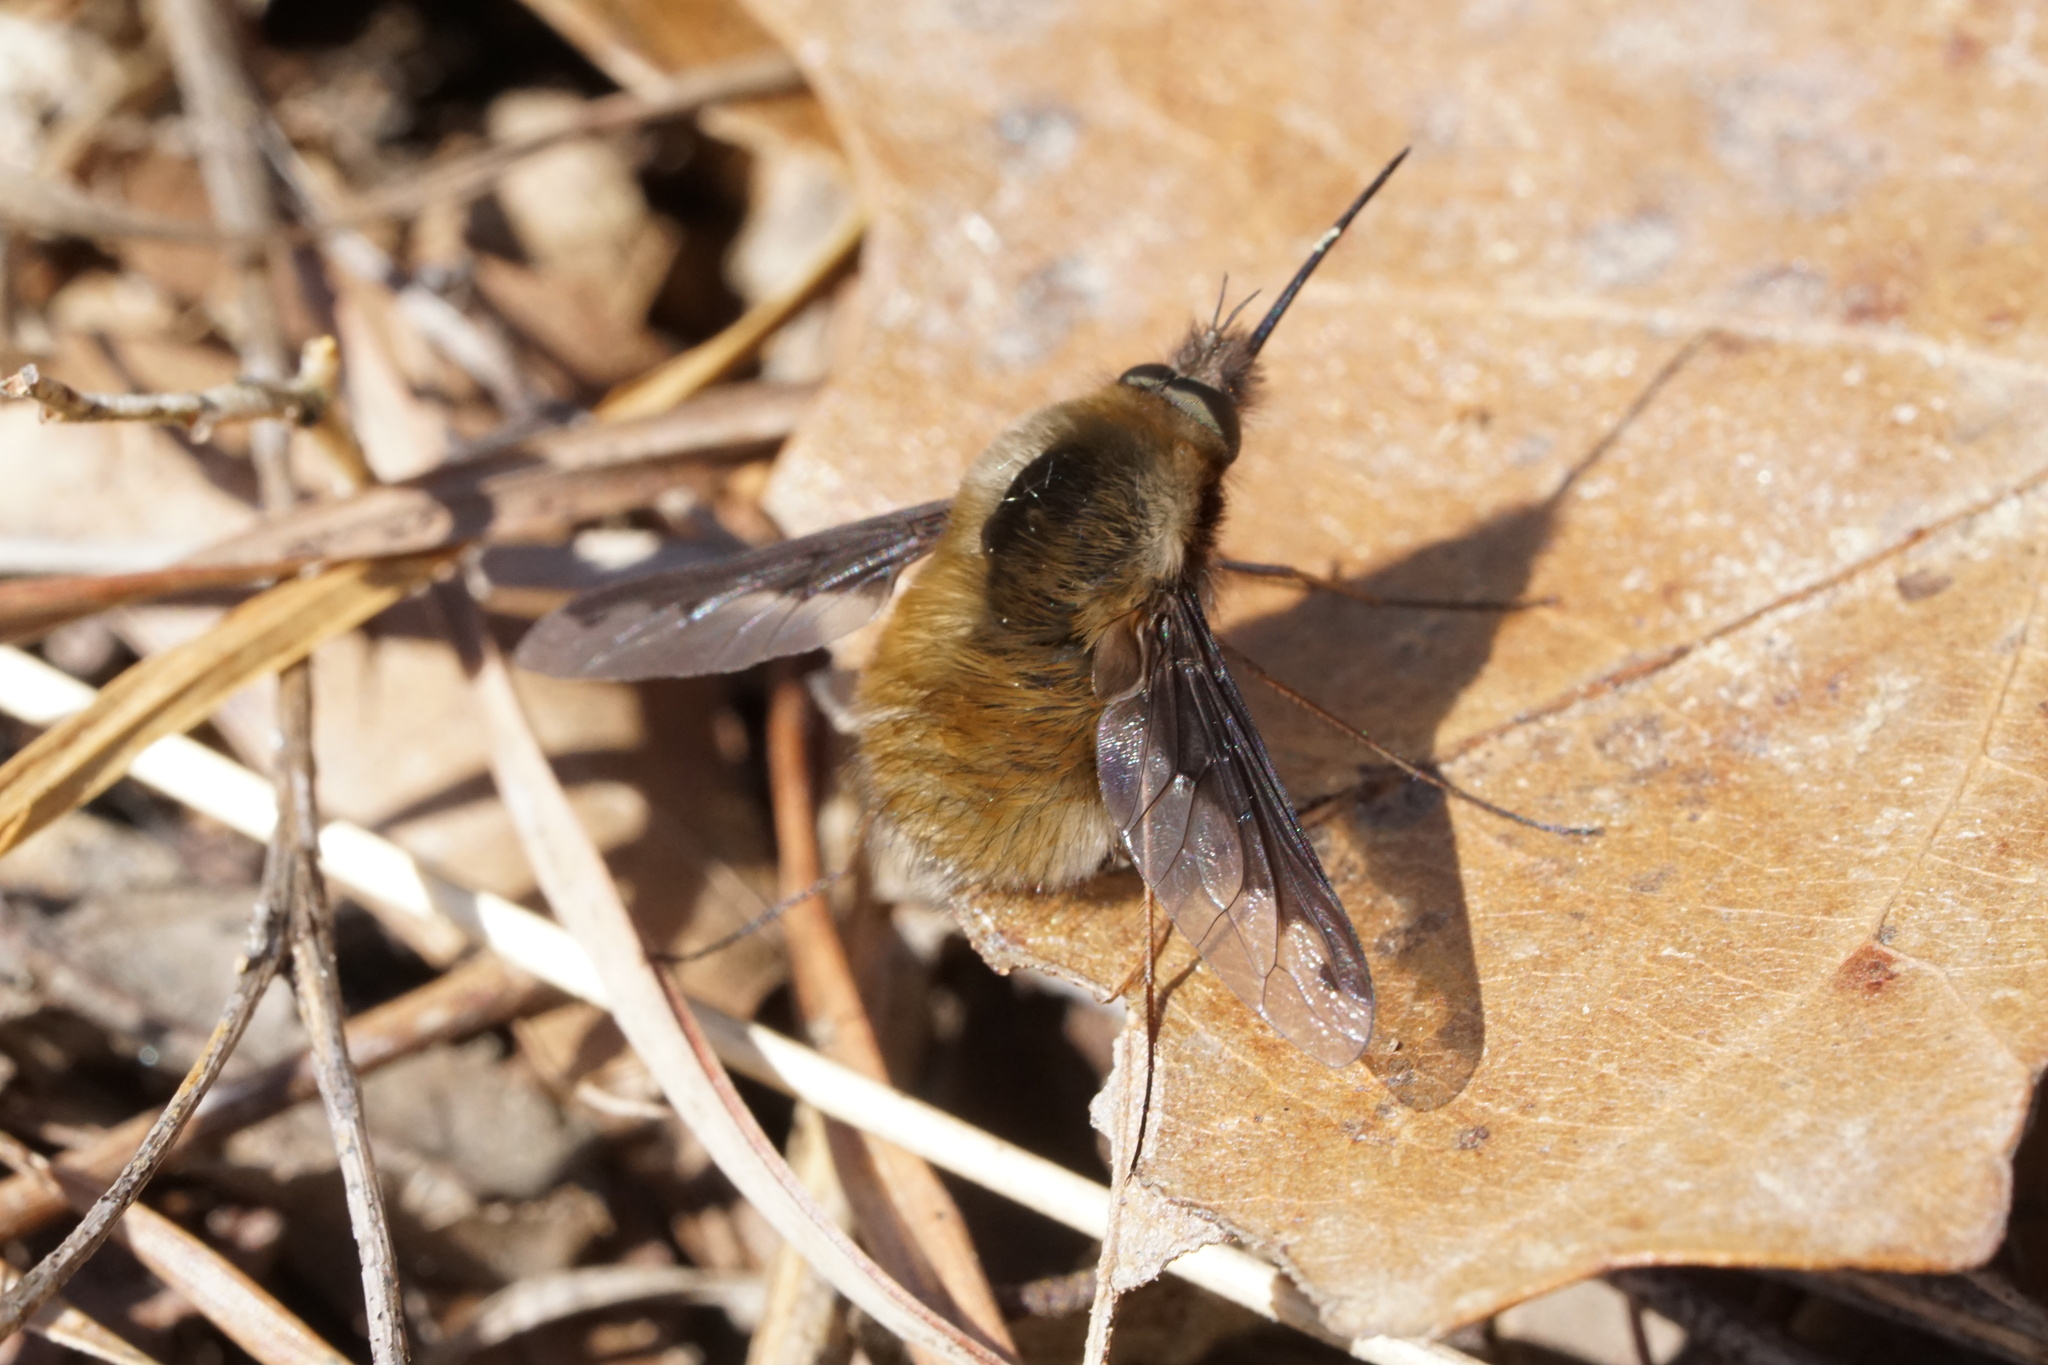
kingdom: Animalia
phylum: Arthropoda
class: Insecta
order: Diptera
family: Bombyliidae
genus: Bombylius
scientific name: Bombylius major
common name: Bee fly
